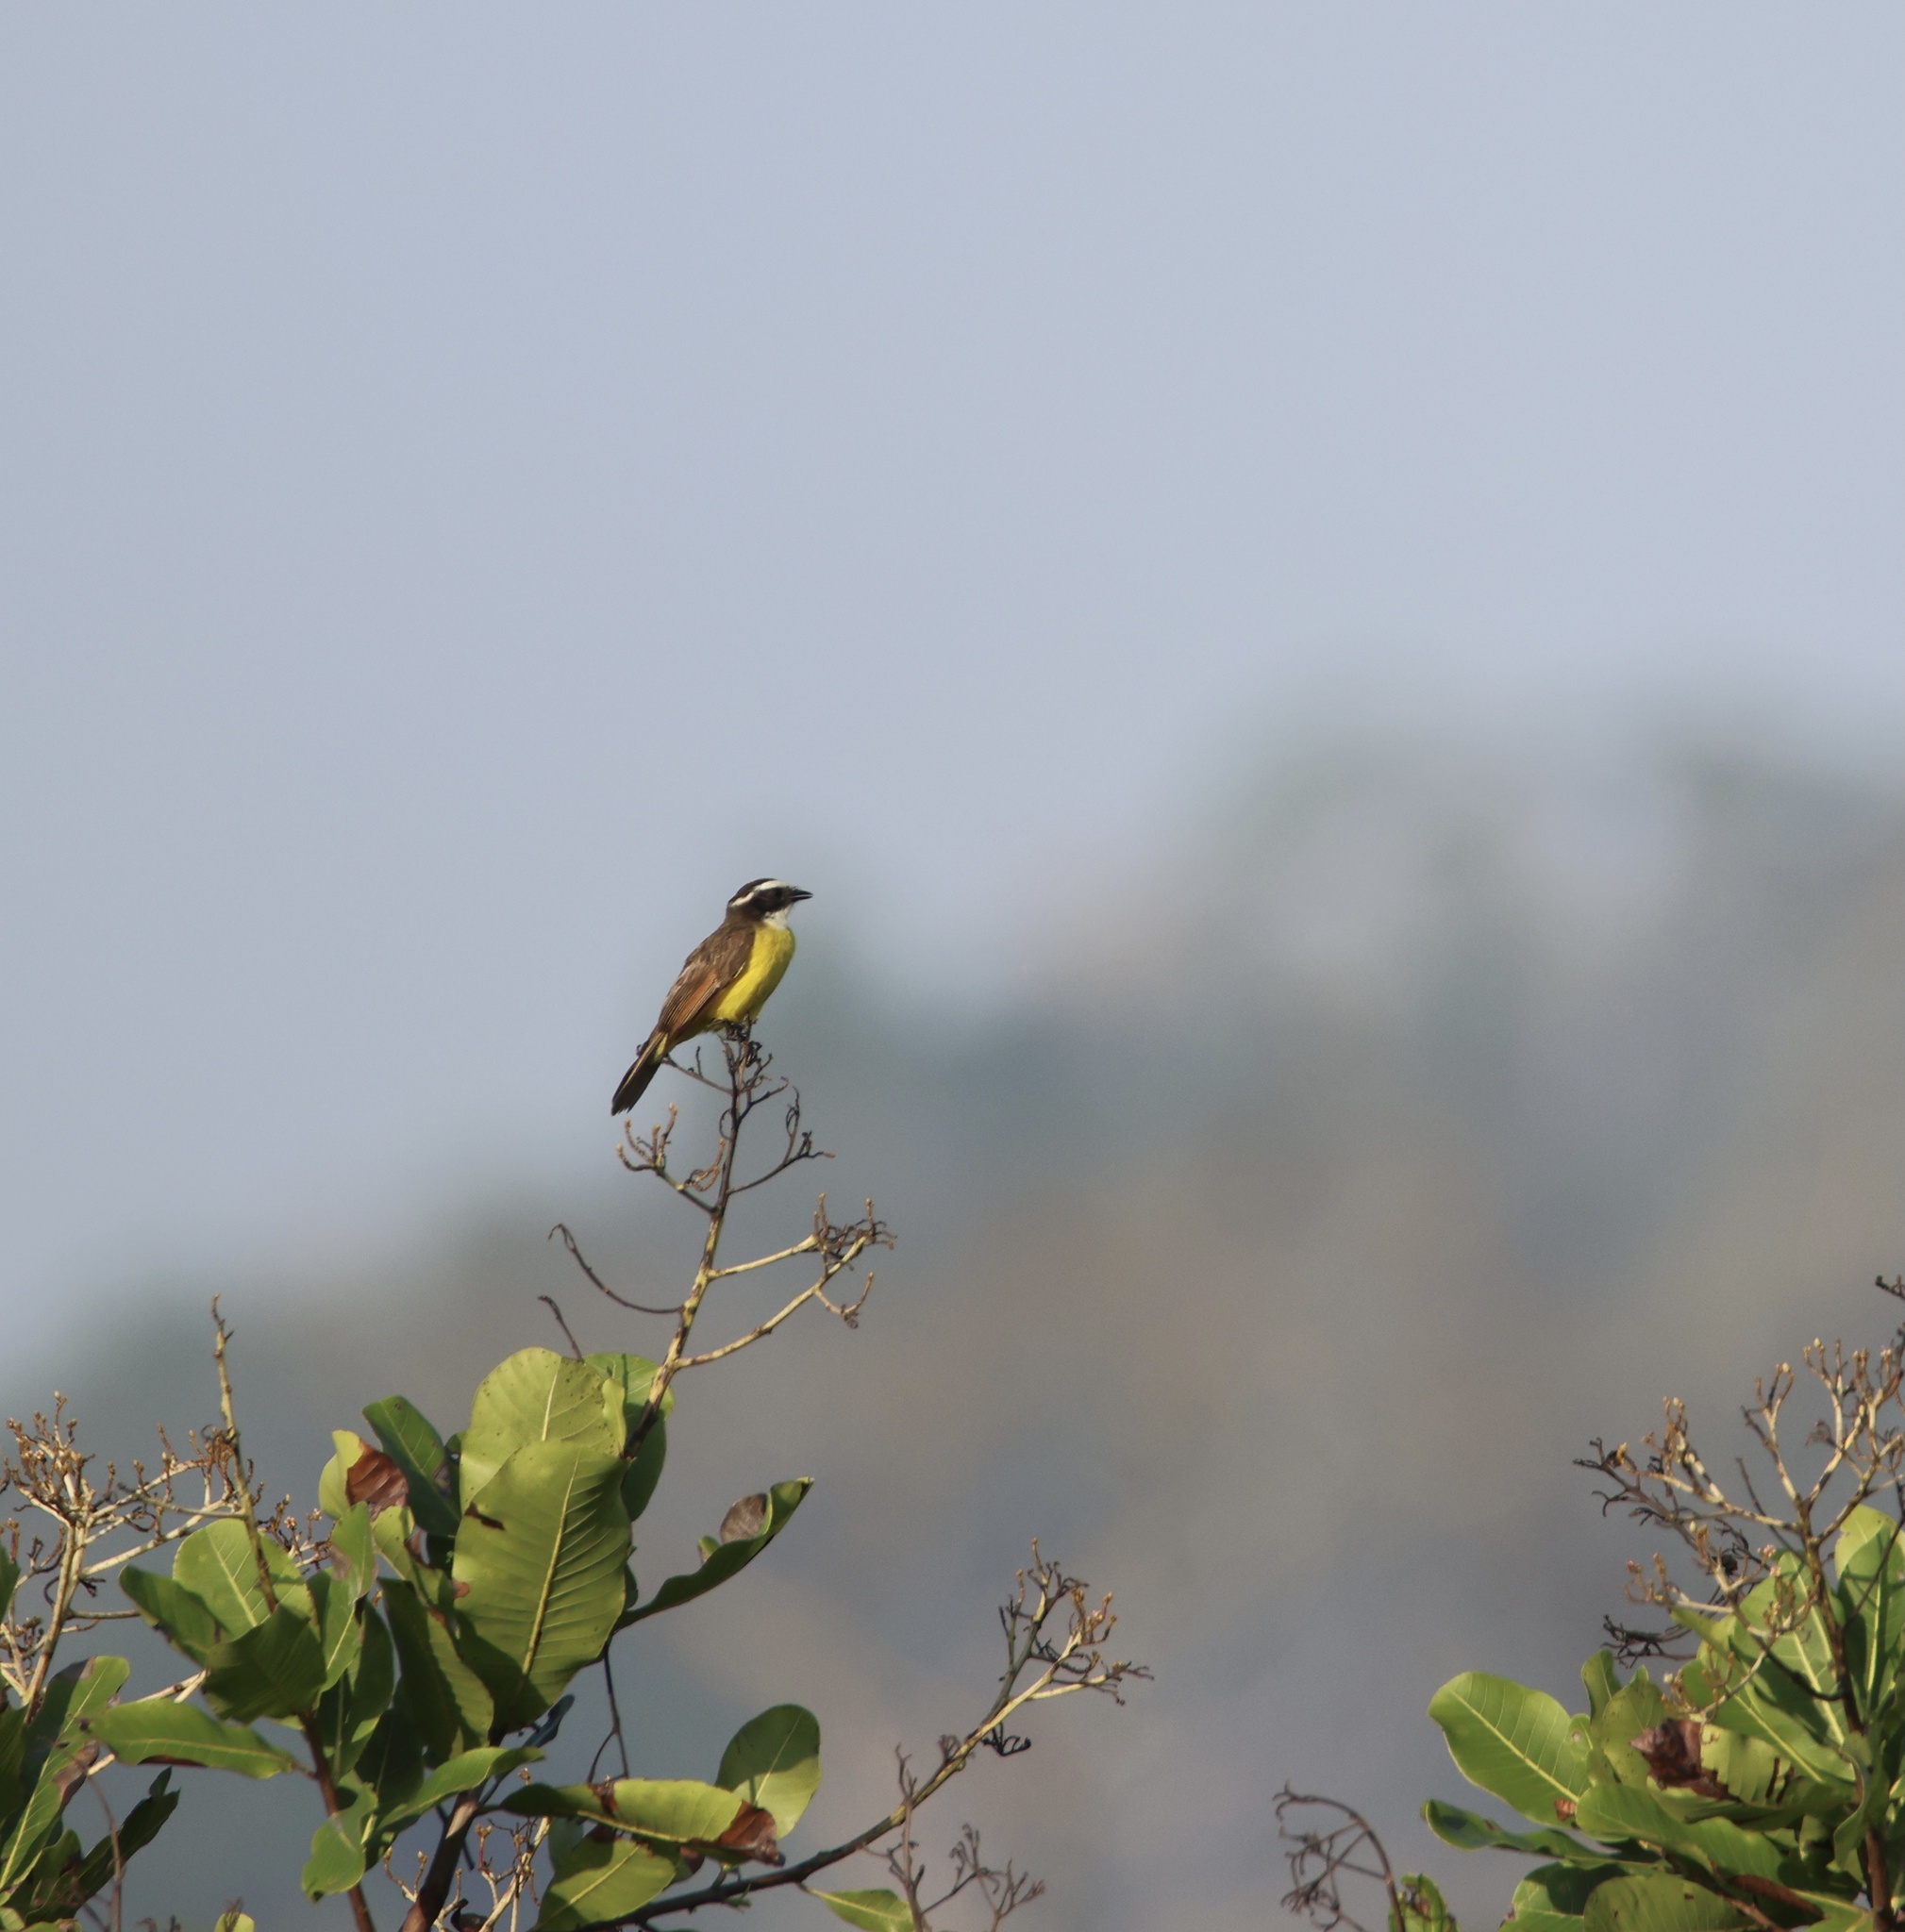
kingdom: Animalia
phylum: Chordata
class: Aves
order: Passeriformes
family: Tyrannidae
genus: Myiozetetes
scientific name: Myiozetetes cayanensis
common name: Rusty-margined flycatcher
